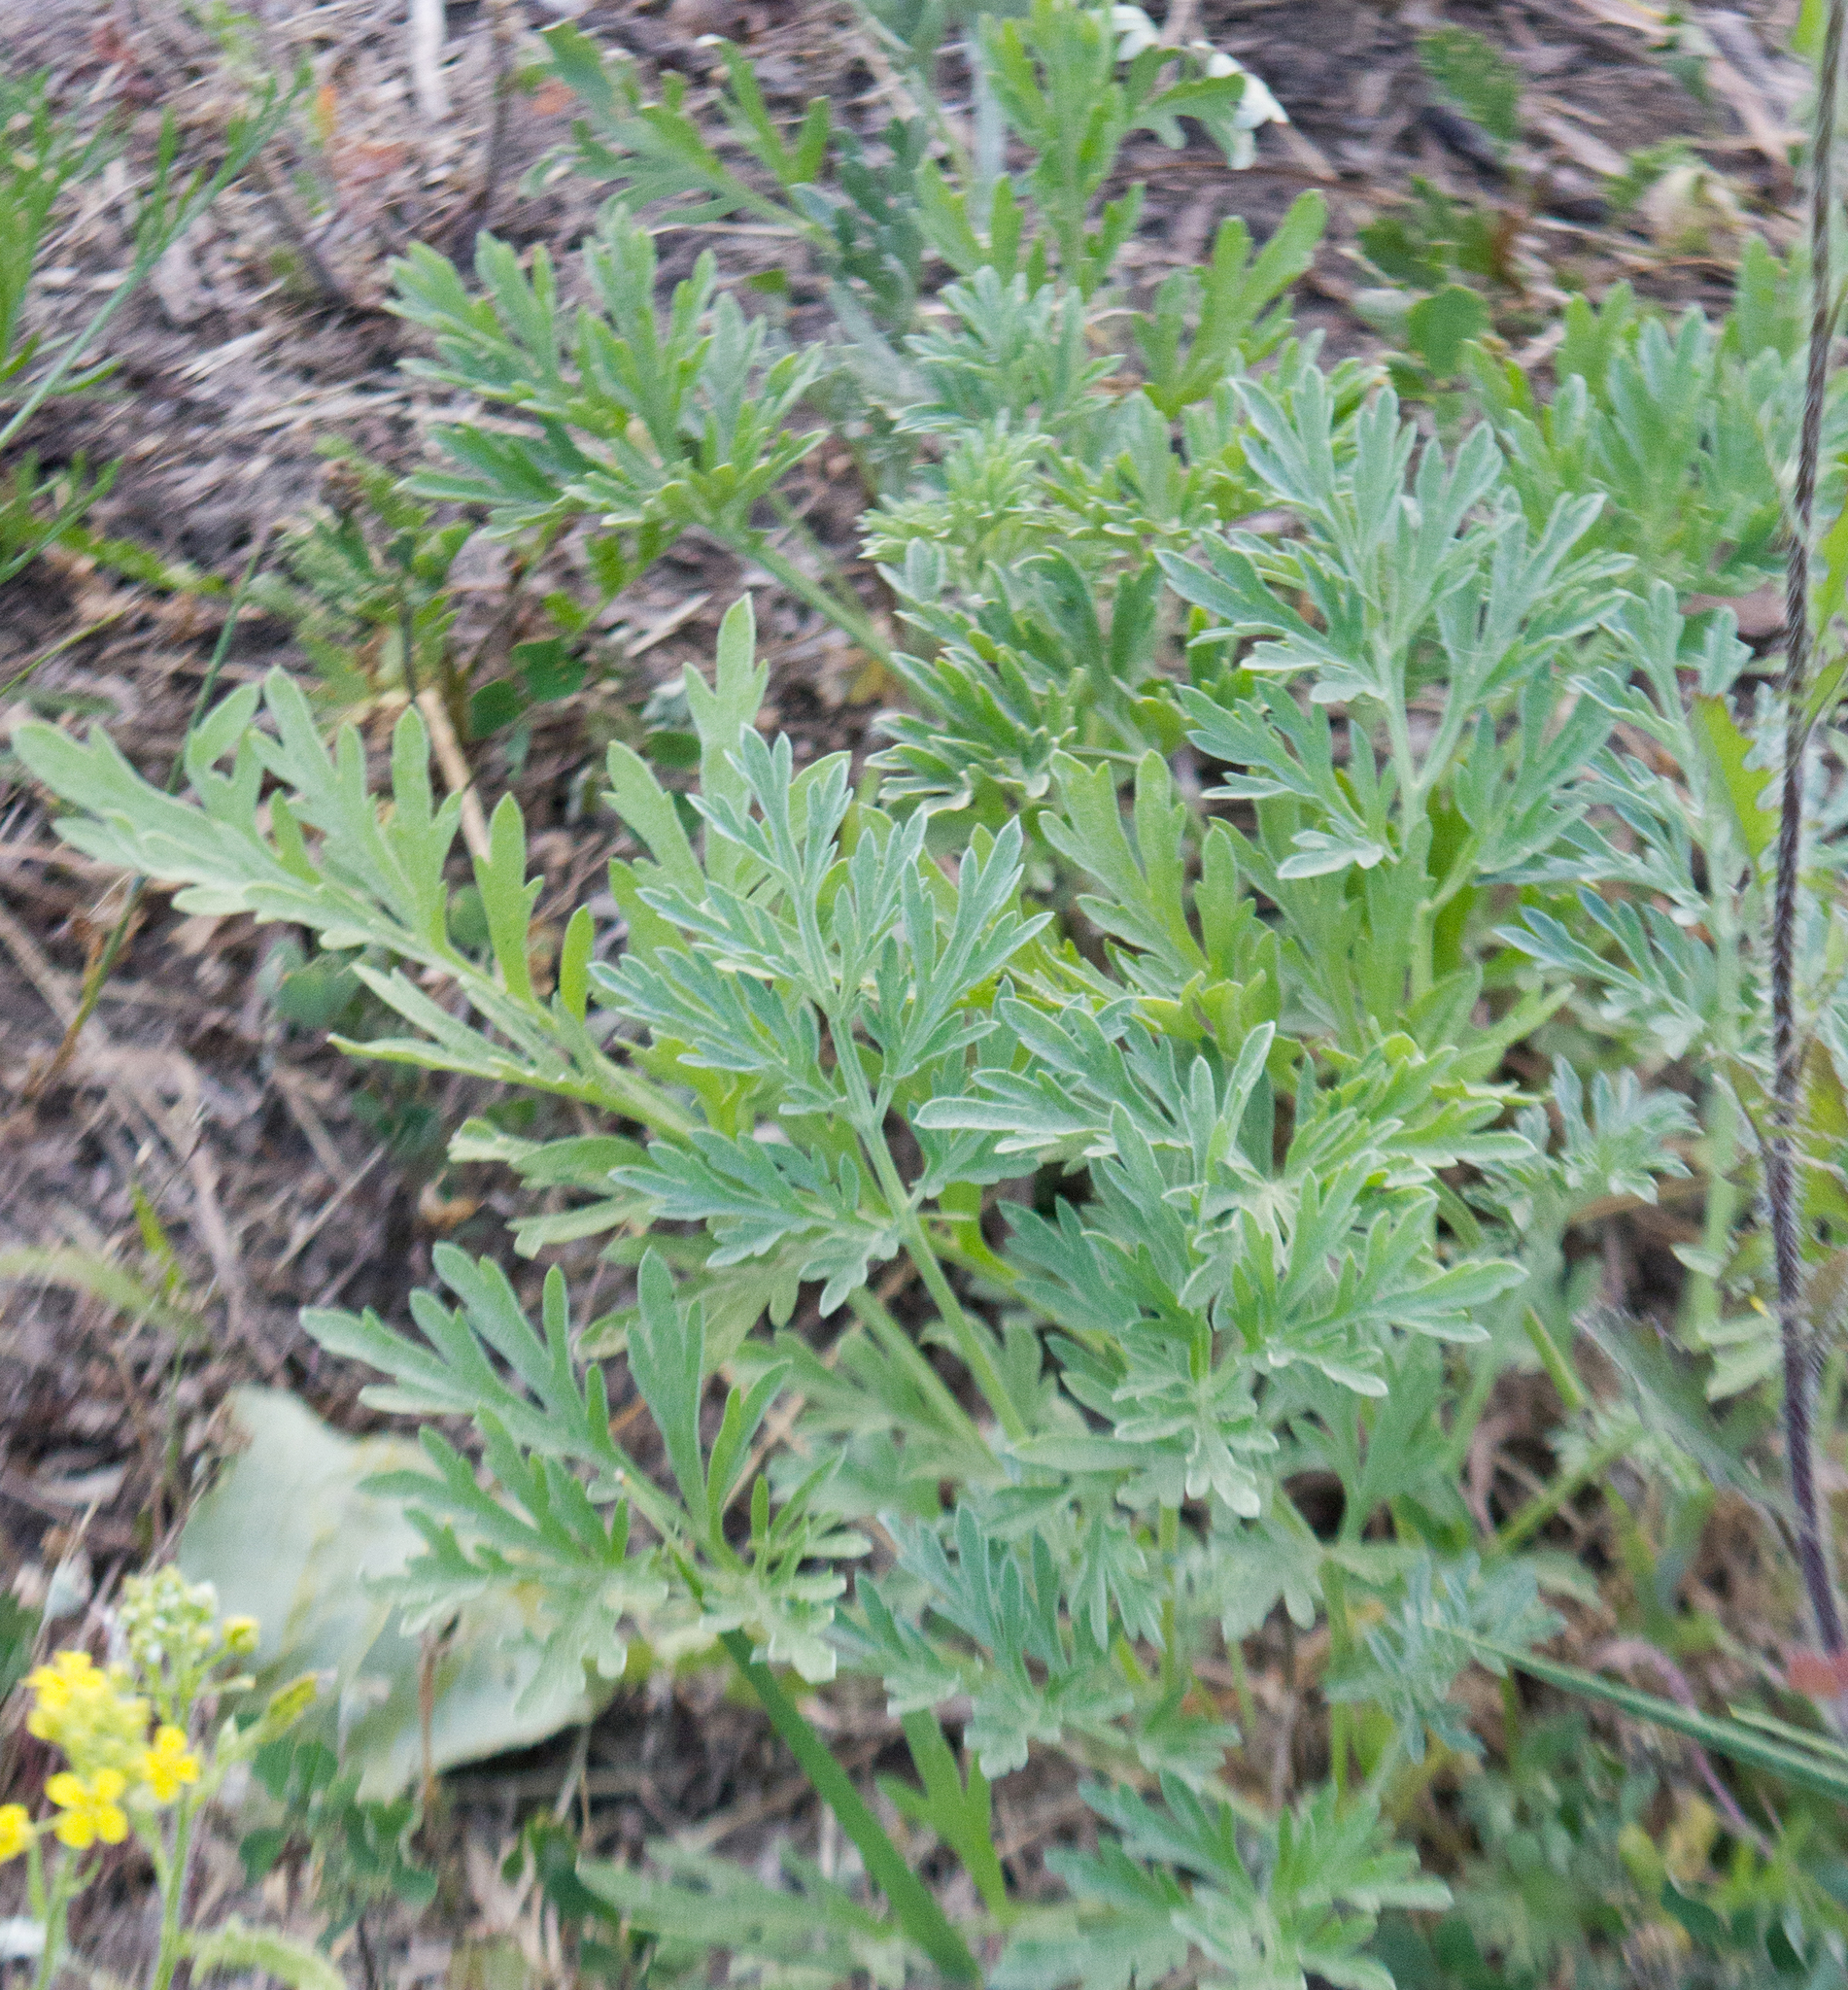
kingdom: Plantae
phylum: Tracheophyta
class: Magnoliopsida
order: Asterales
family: Asteraceae
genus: Artemisia
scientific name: Artemisia absinthium
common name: Wormwood
